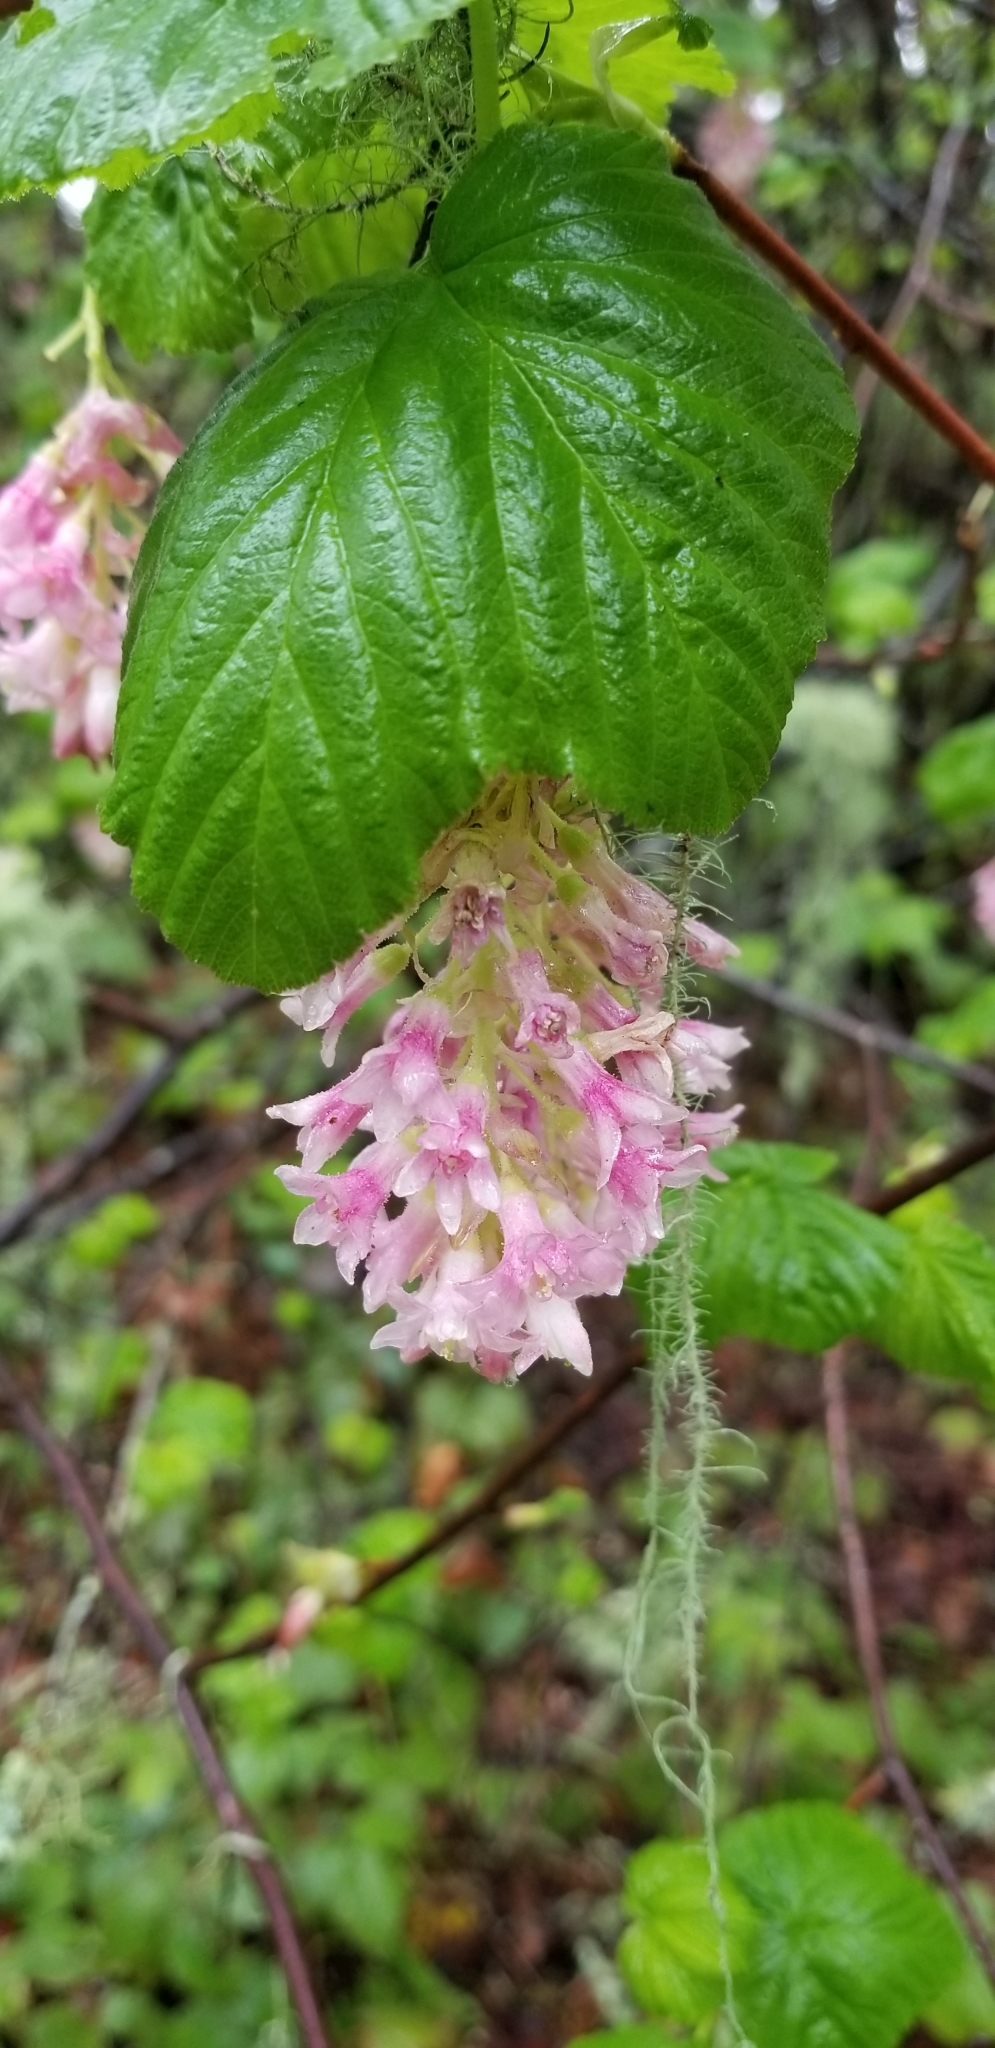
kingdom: Plantae
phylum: Tracheophyta
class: Magnoliopsida
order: Saxifragales
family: Grossulariaceae
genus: Ribes
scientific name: Ribes sanguineum
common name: Flowering currant
